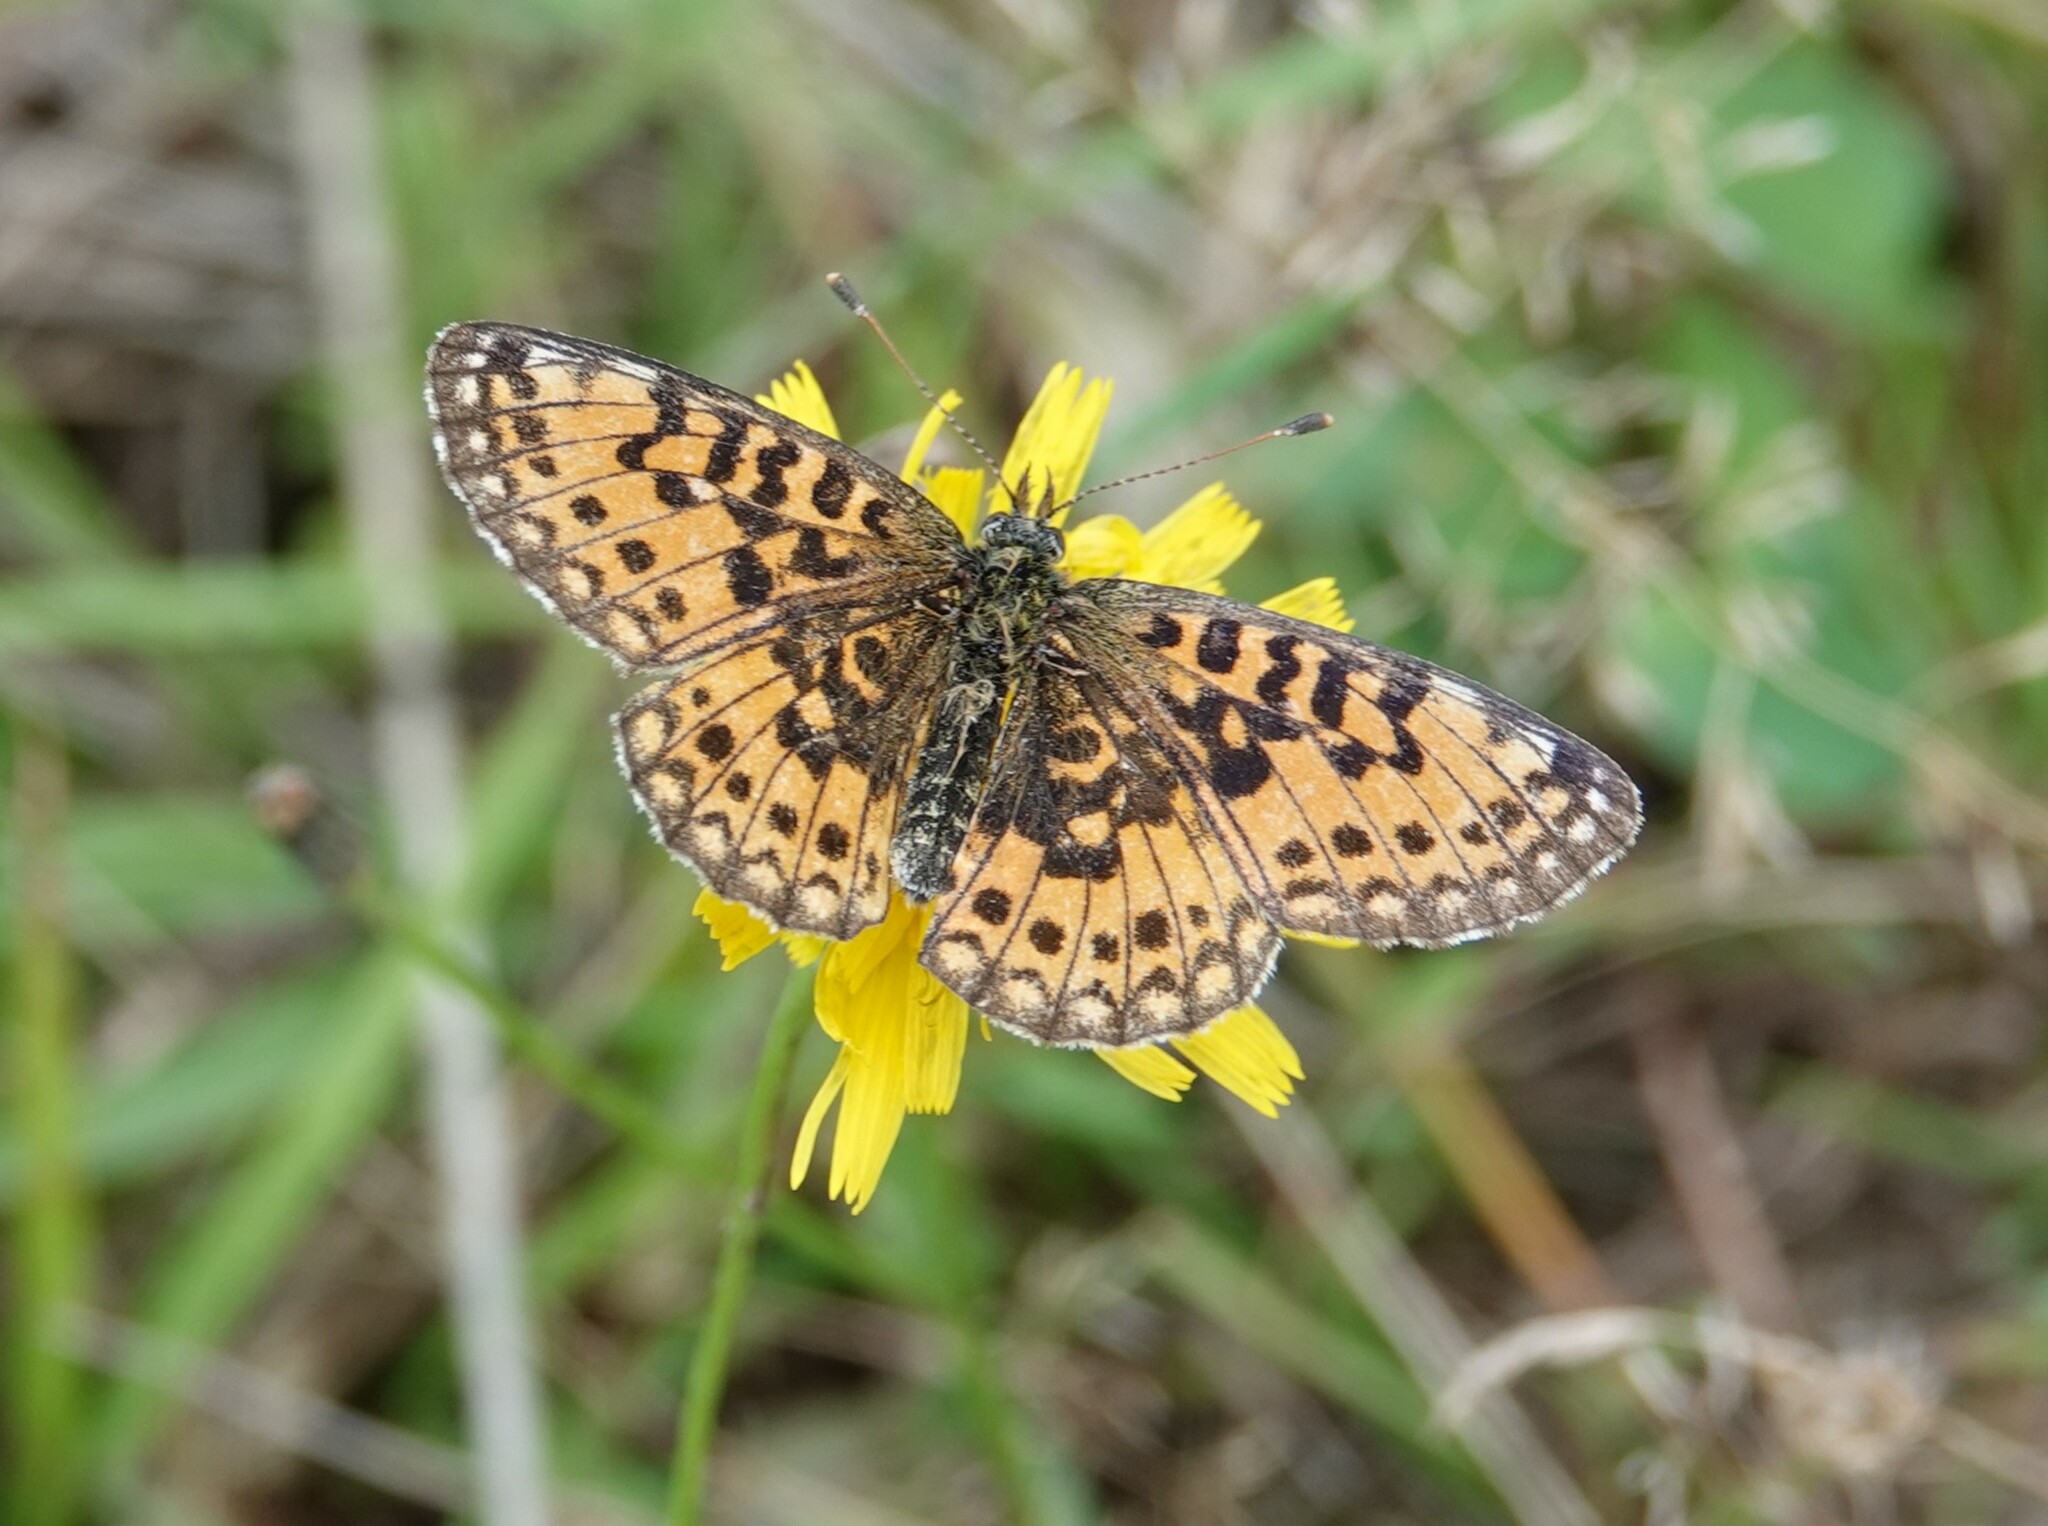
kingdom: Animalia
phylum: Arthropoda
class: Insecta
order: Lepidoptera
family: Nymphalidae
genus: Boloria
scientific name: Boloria selene
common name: Small pearl-bordered fritillary
